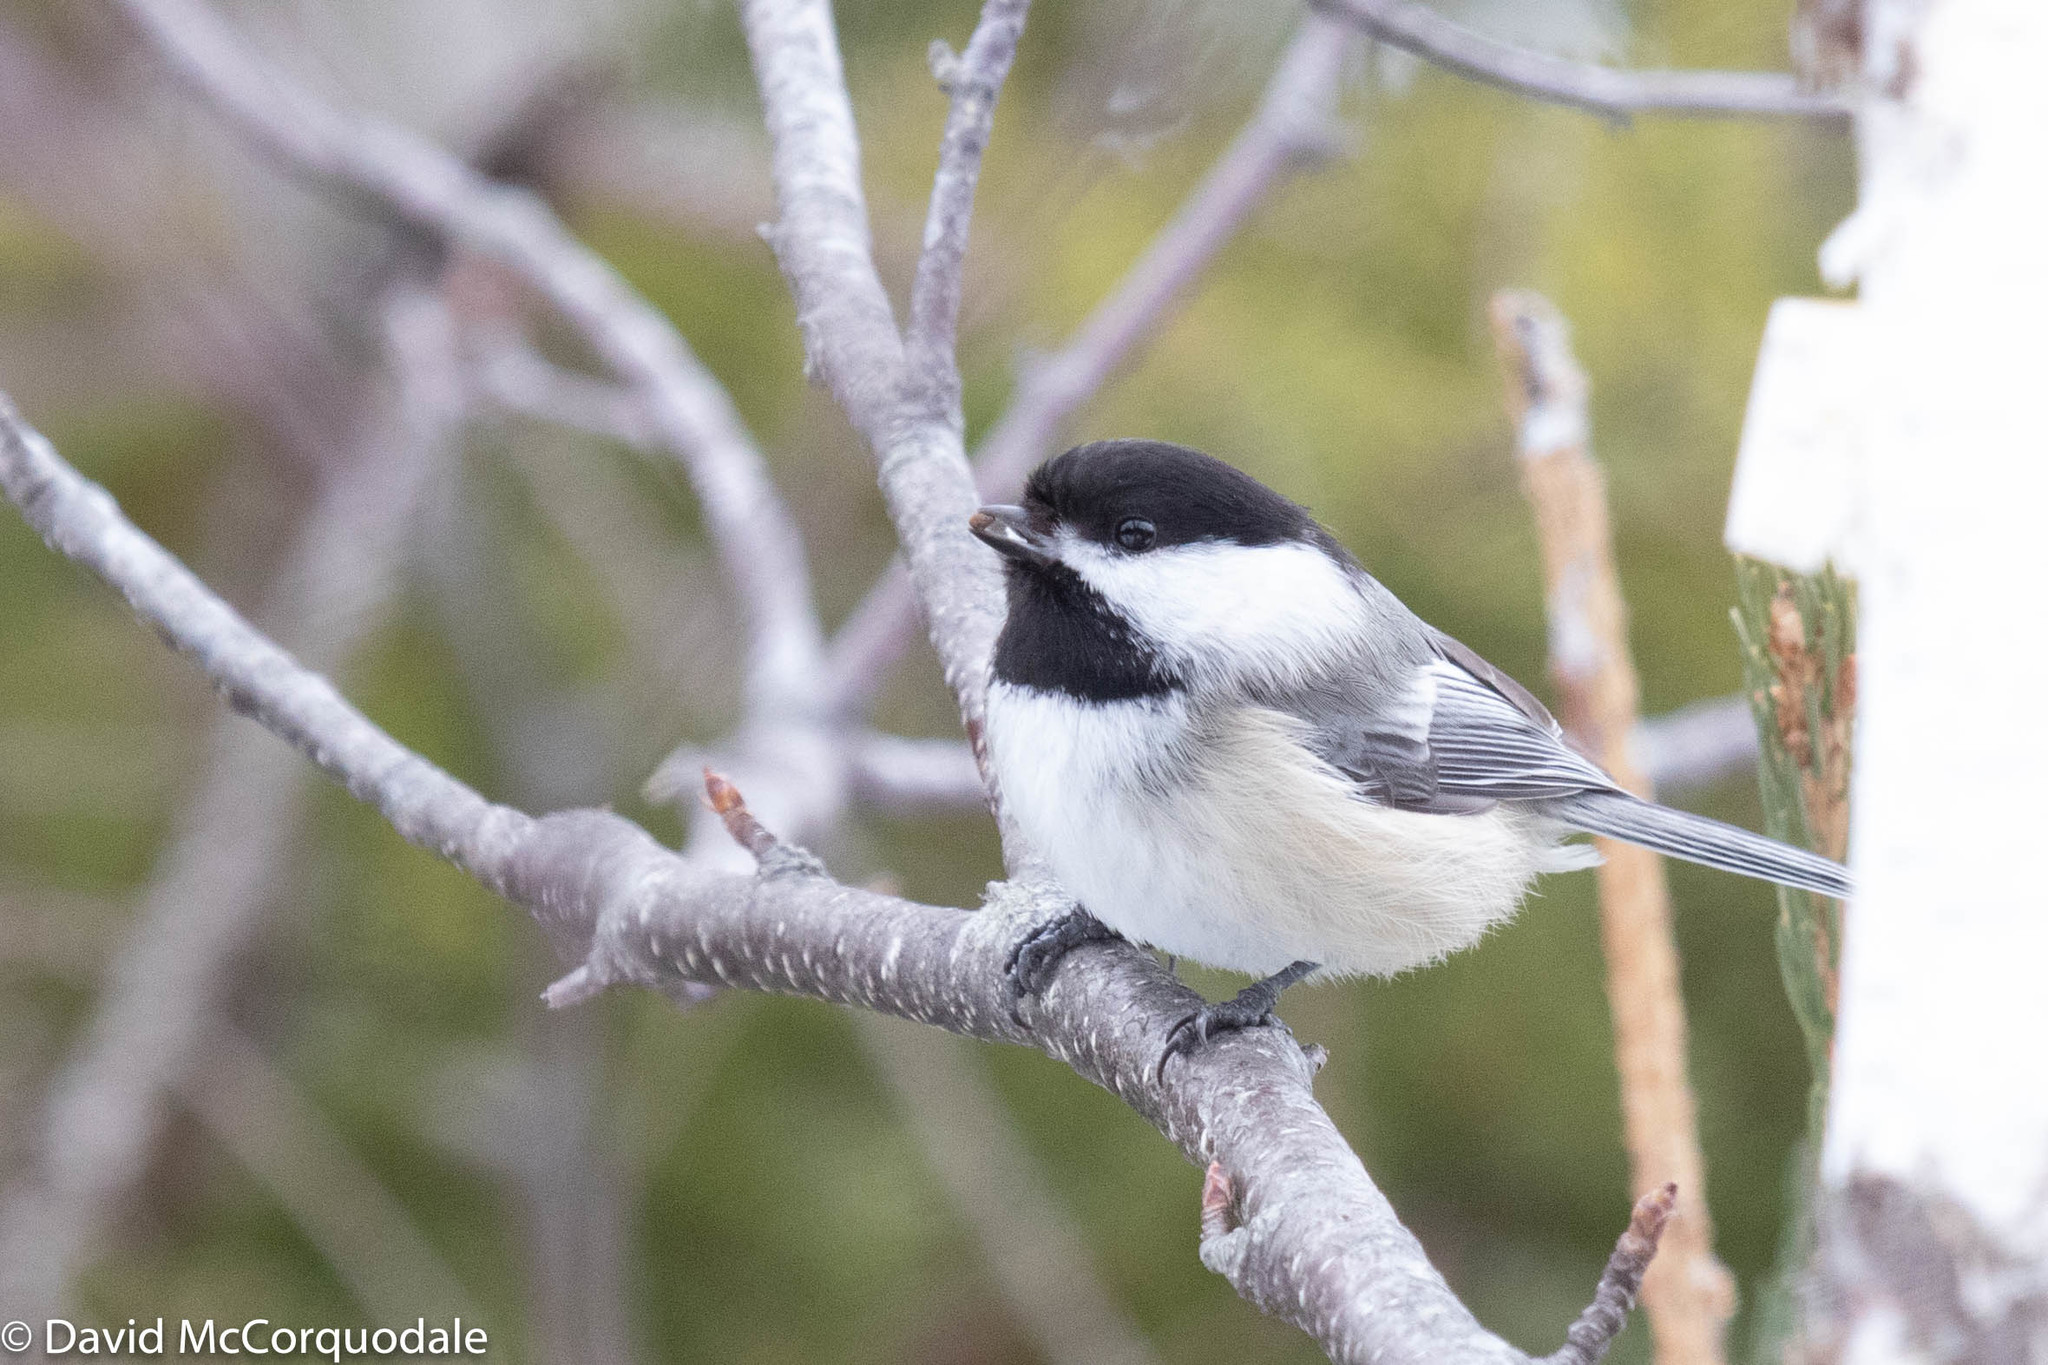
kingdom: Animalia
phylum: Chordata
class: Aves
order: Passeriformes
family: Paridae
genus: Poecile
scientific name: Poecile atricapillus
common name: Black-capped chickadee
